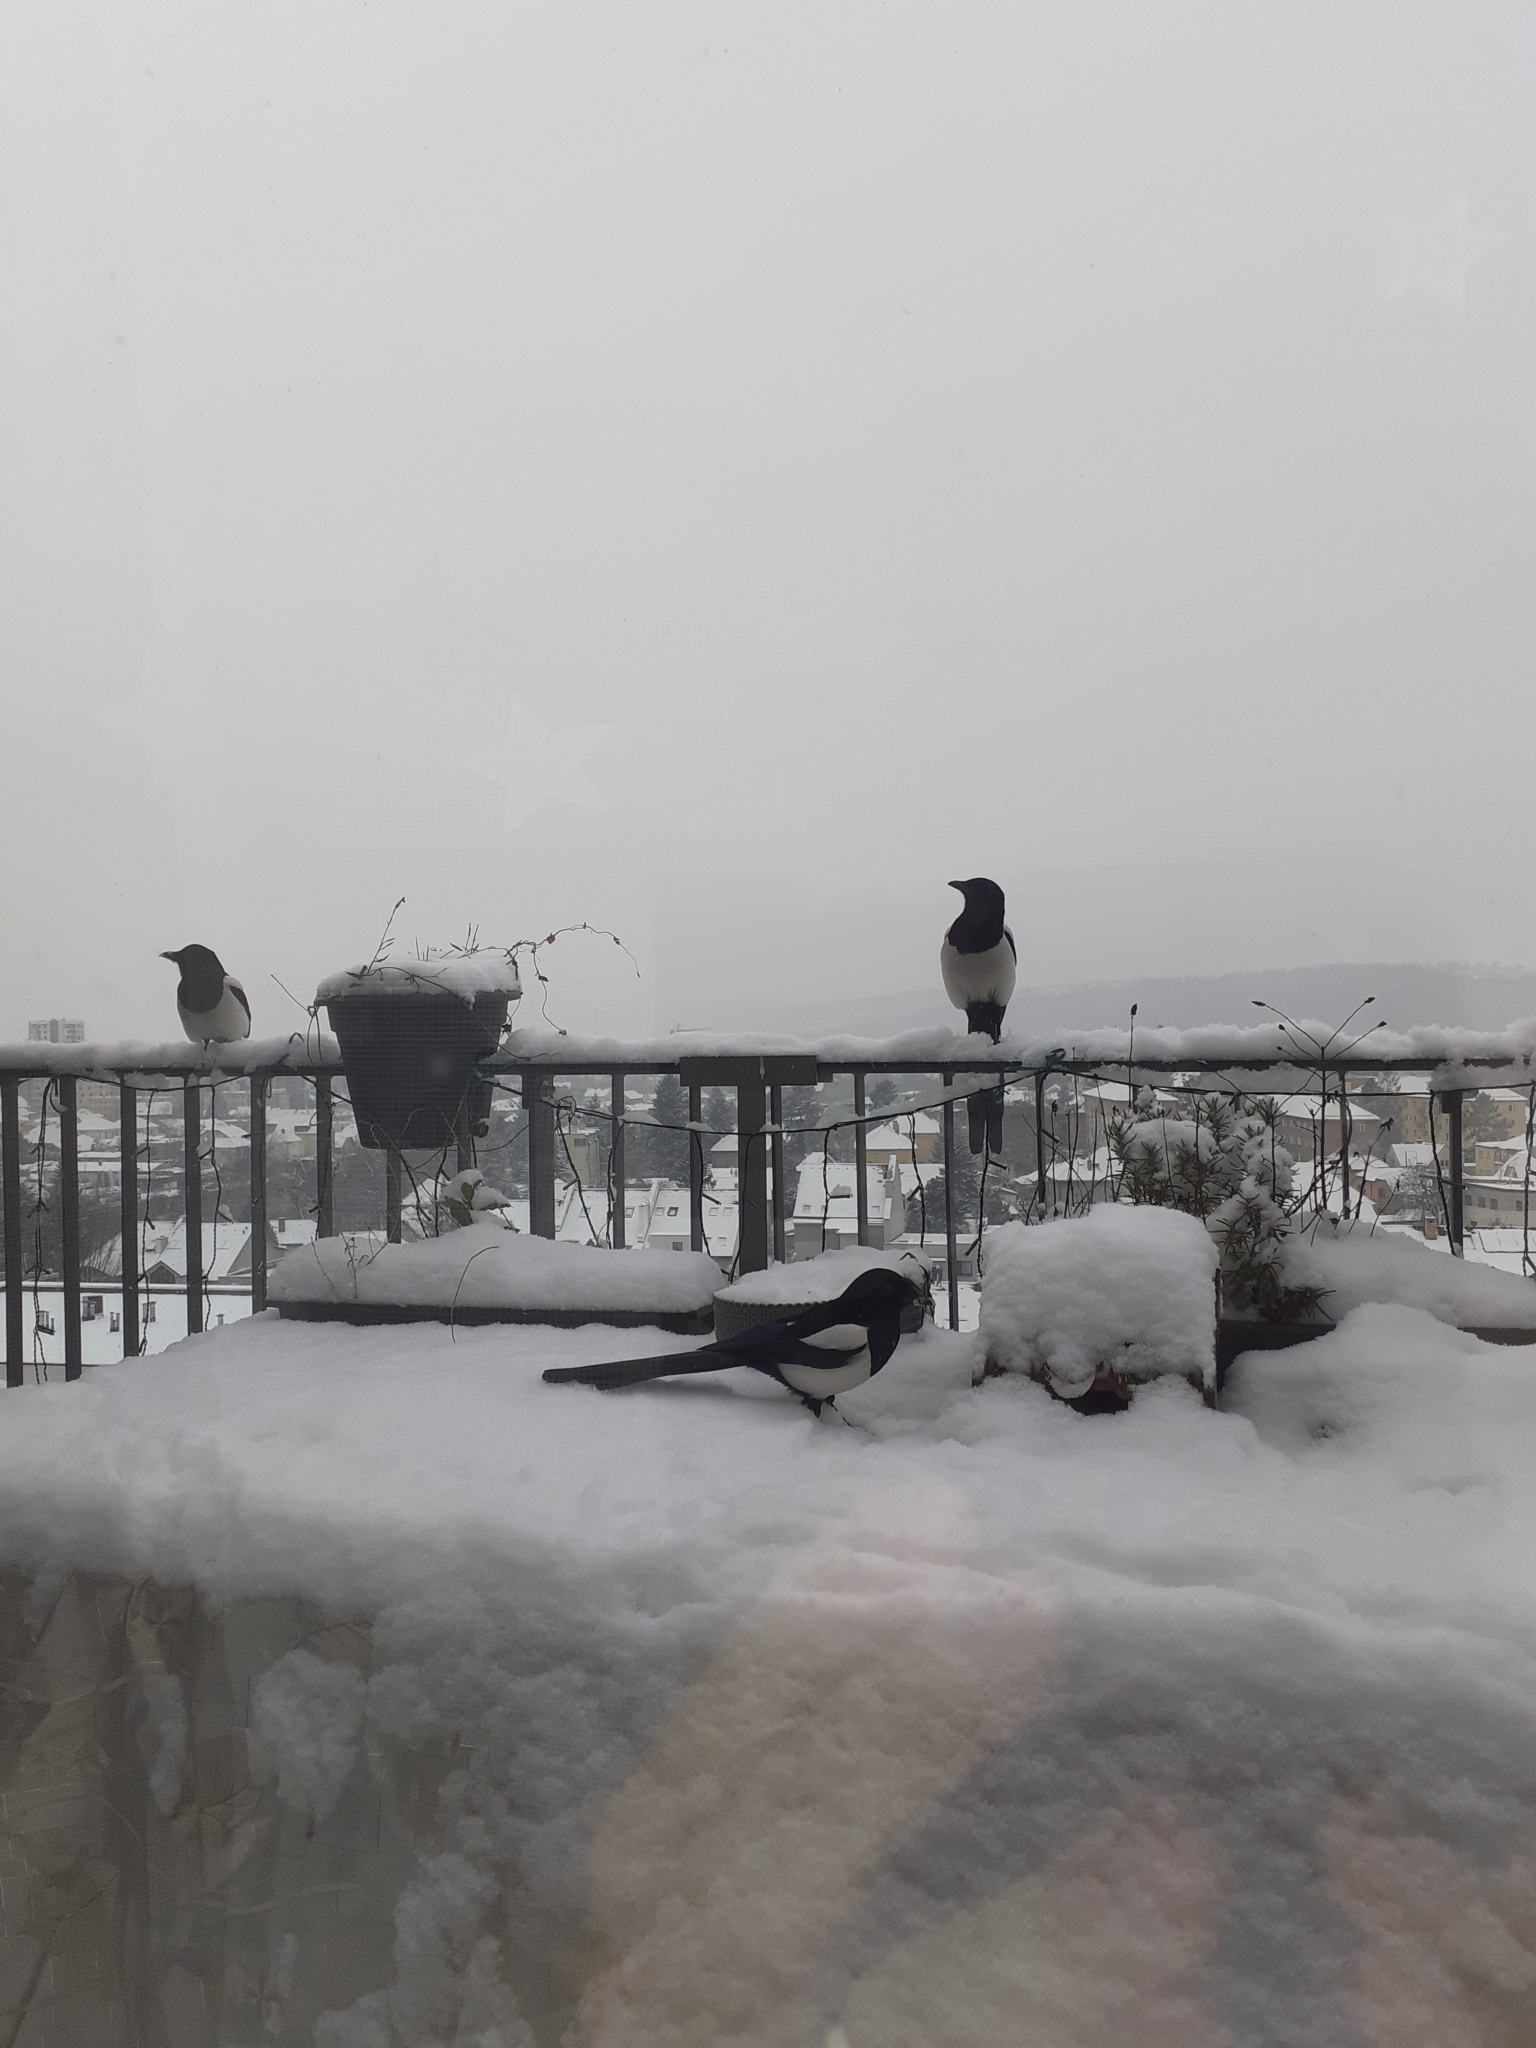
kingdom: Animalia
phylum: Chordata
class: Aves
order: Passeriformes
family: Corvidae
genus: Pica
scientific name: Pica pica
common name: Eurasian magpie
